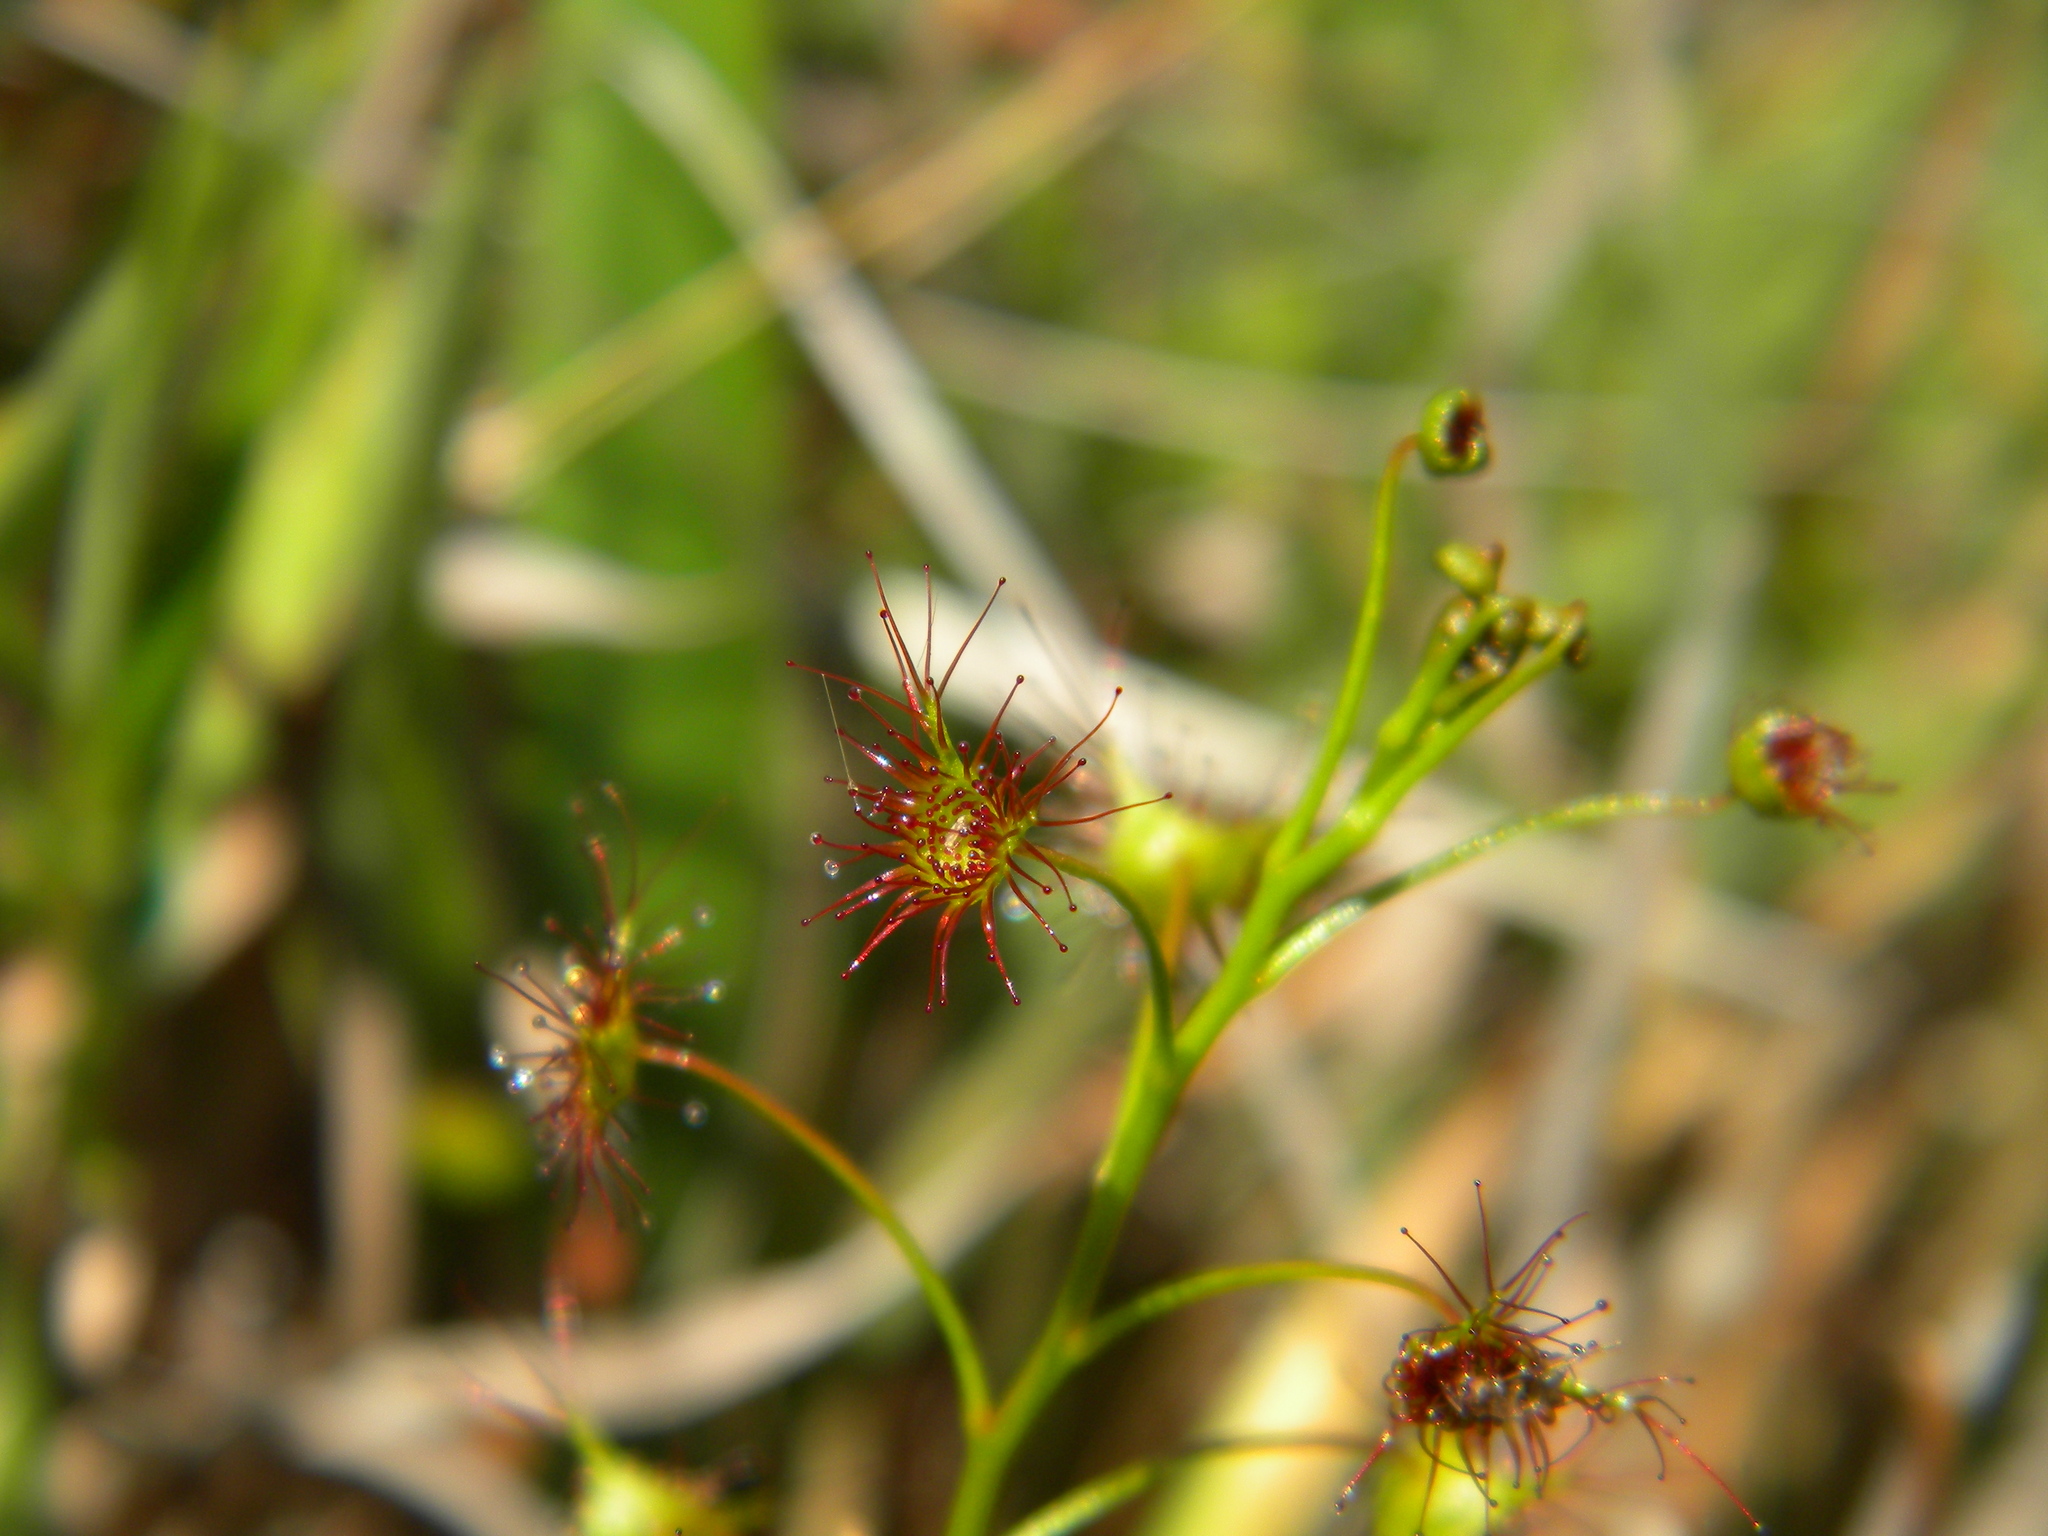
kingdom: Plantae
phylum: Tracheophyta
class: Magnoliopsida
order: Caryophyllales
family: Droseraceae
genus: Drosera
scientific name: Drosera peltata
